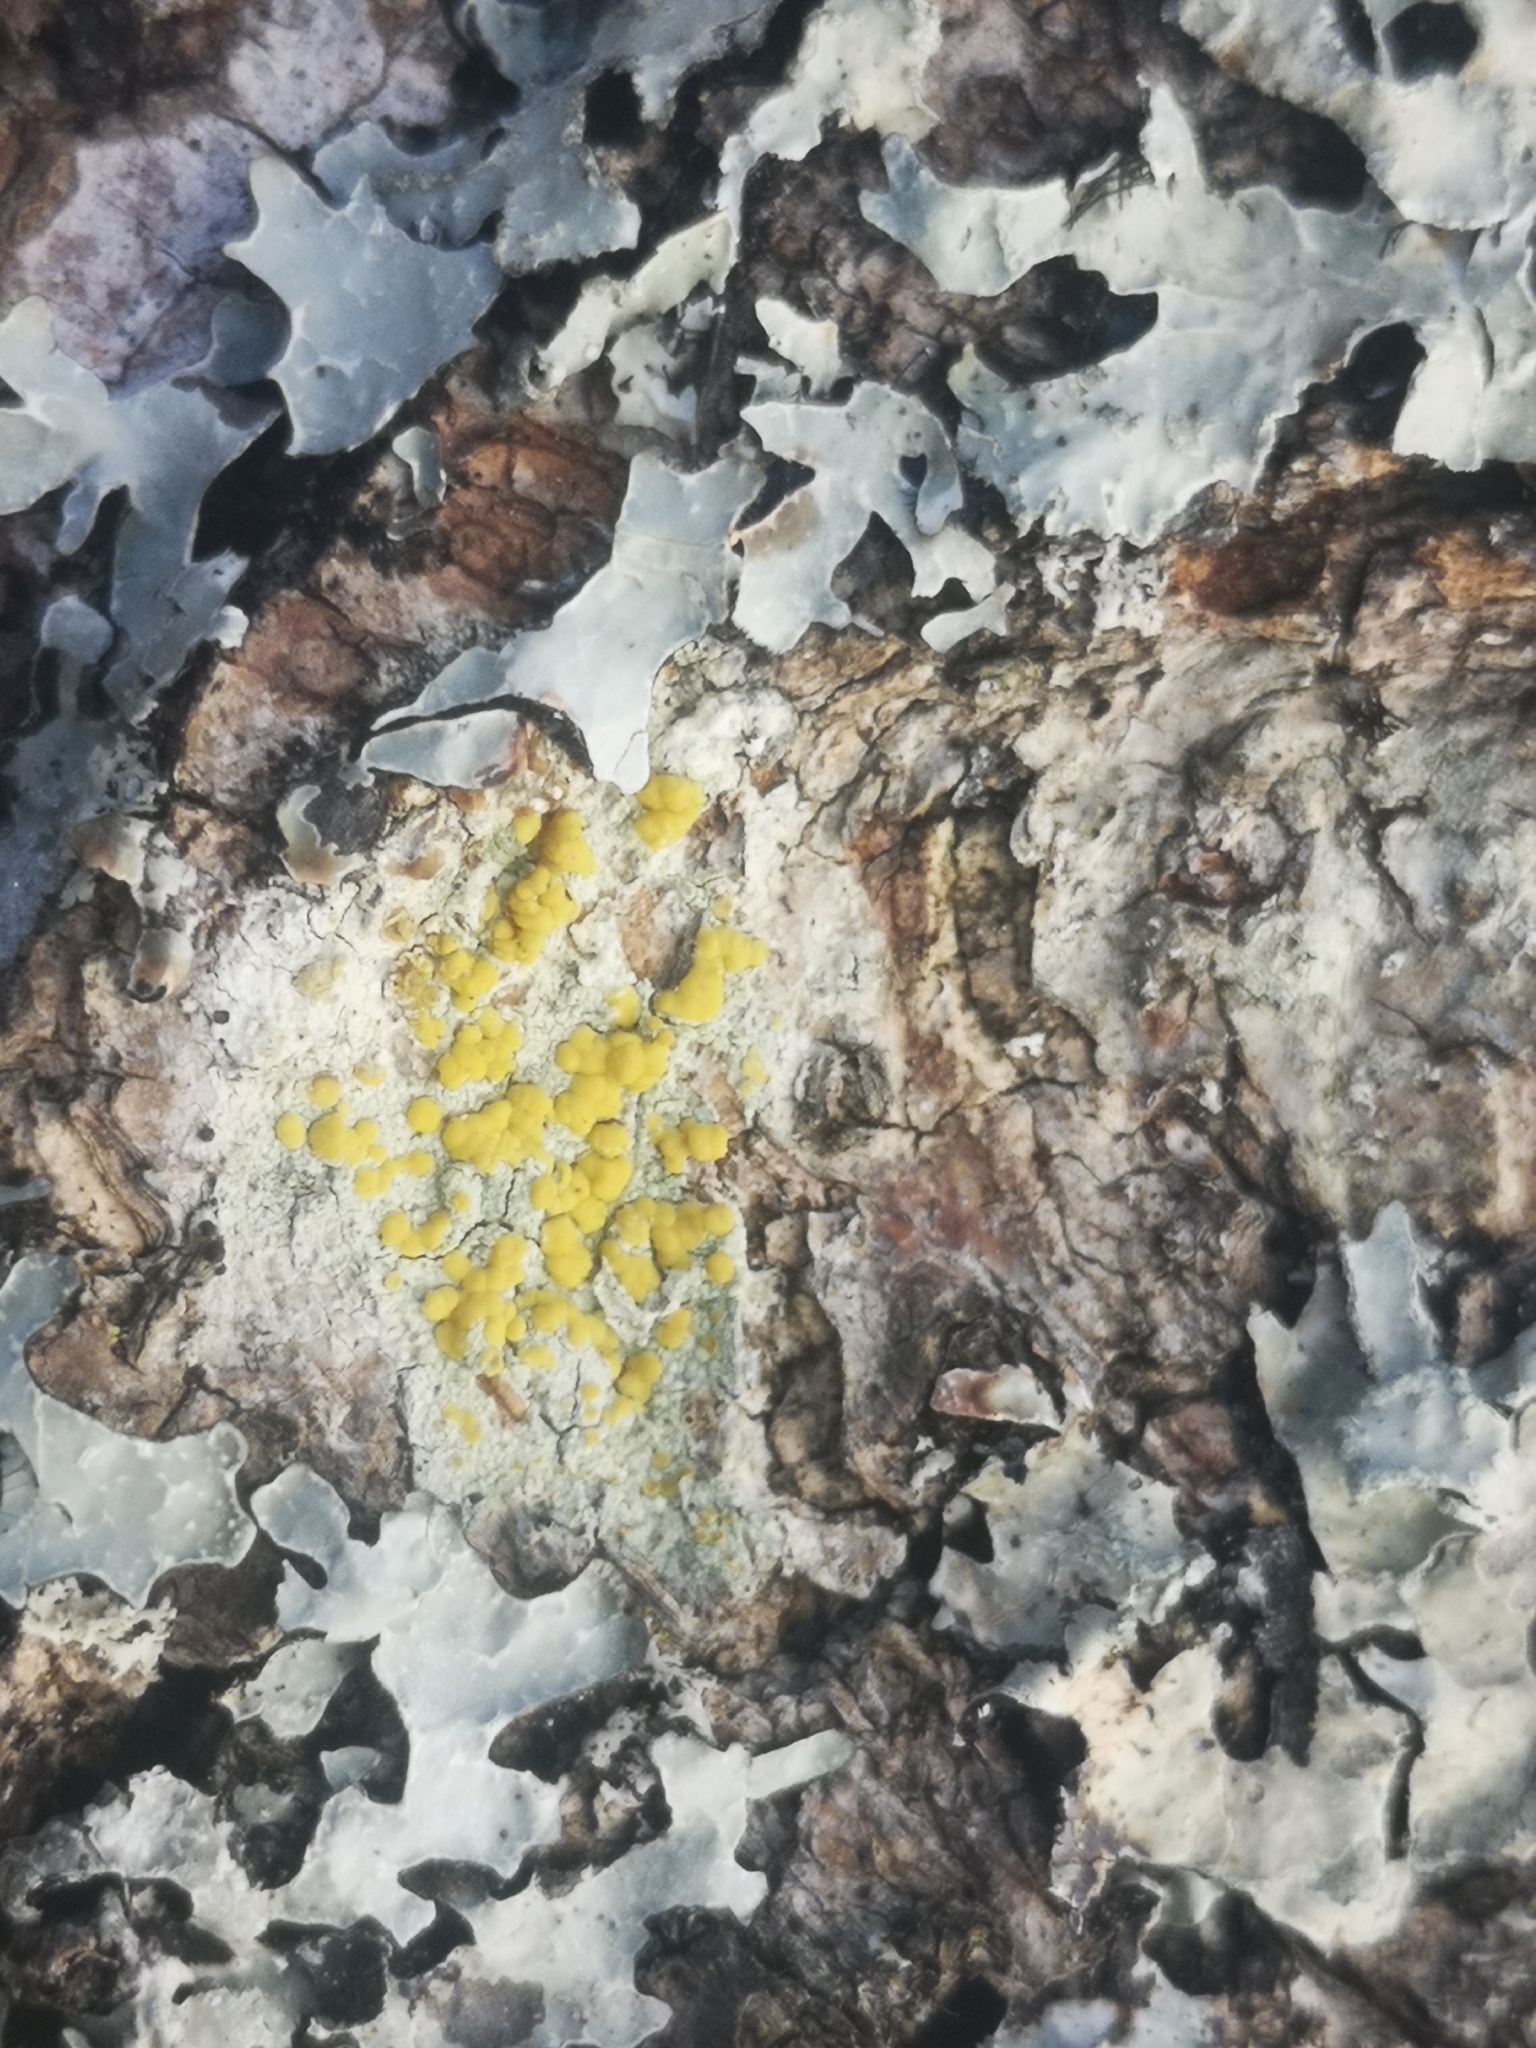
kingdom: Fungi
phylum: Ascomycota
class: Lecanoromycetes
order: Lecanorales
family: Lecanoraceae
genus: Lecanora
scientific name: Lecanora symmicta
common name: Fused rim lichen
